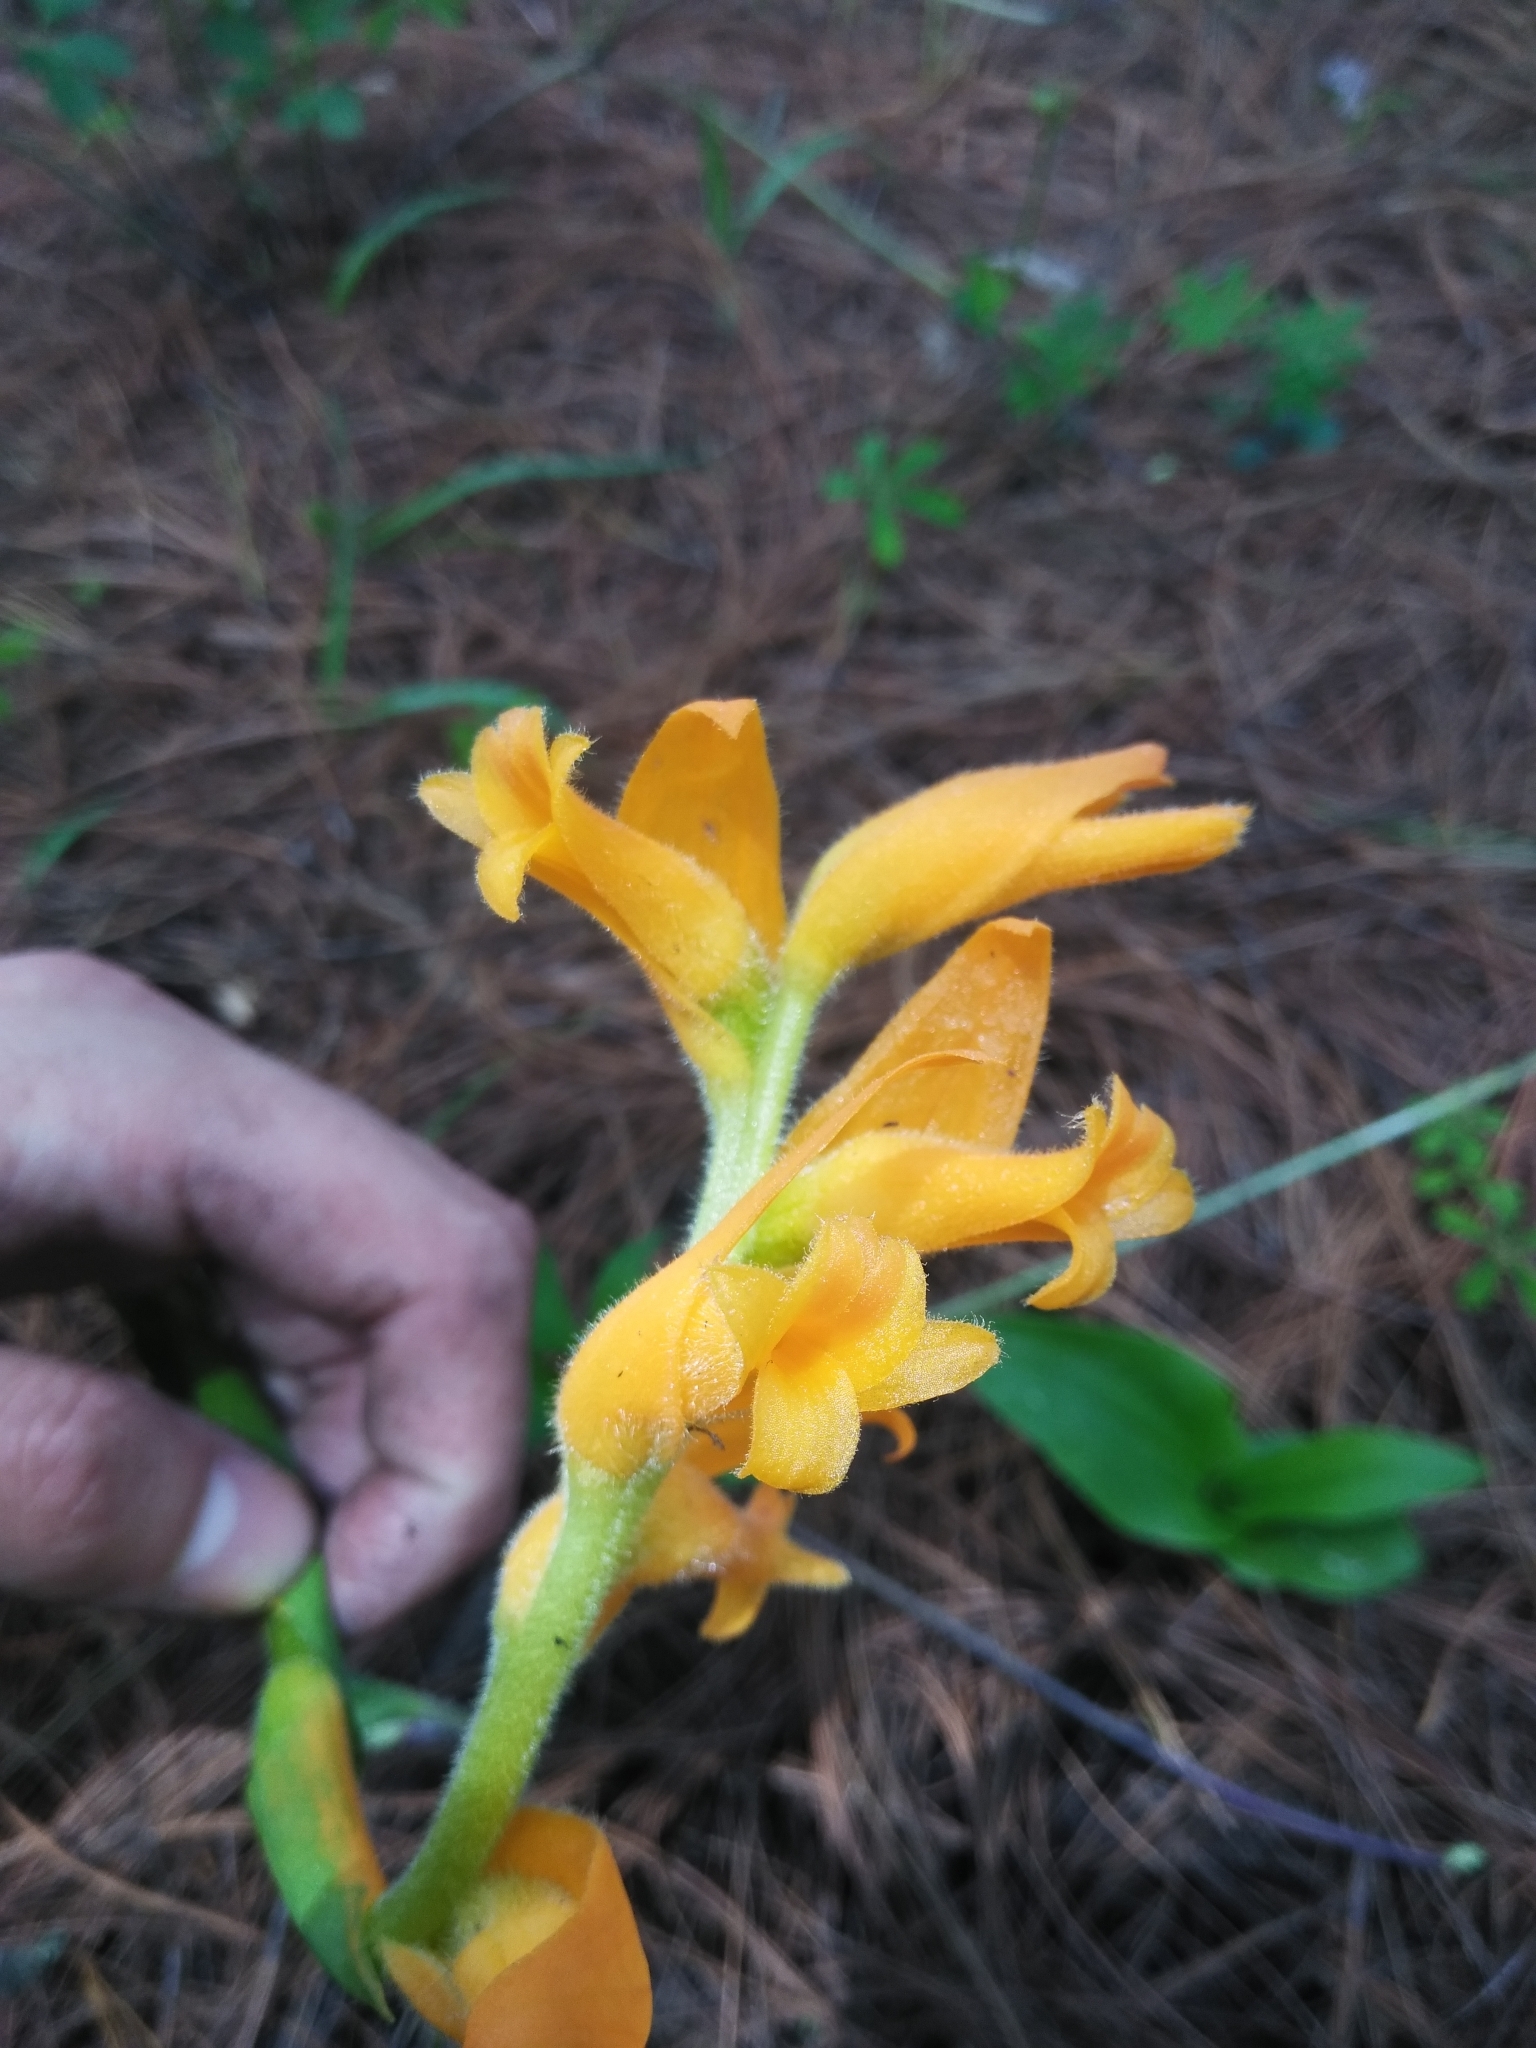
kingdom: Plantae
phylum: Tracheophyta
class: Liliopsida
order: Asparagales
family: Orchidaceae
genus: Dichromanthus
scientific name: Dichromanthus aurantiacus
